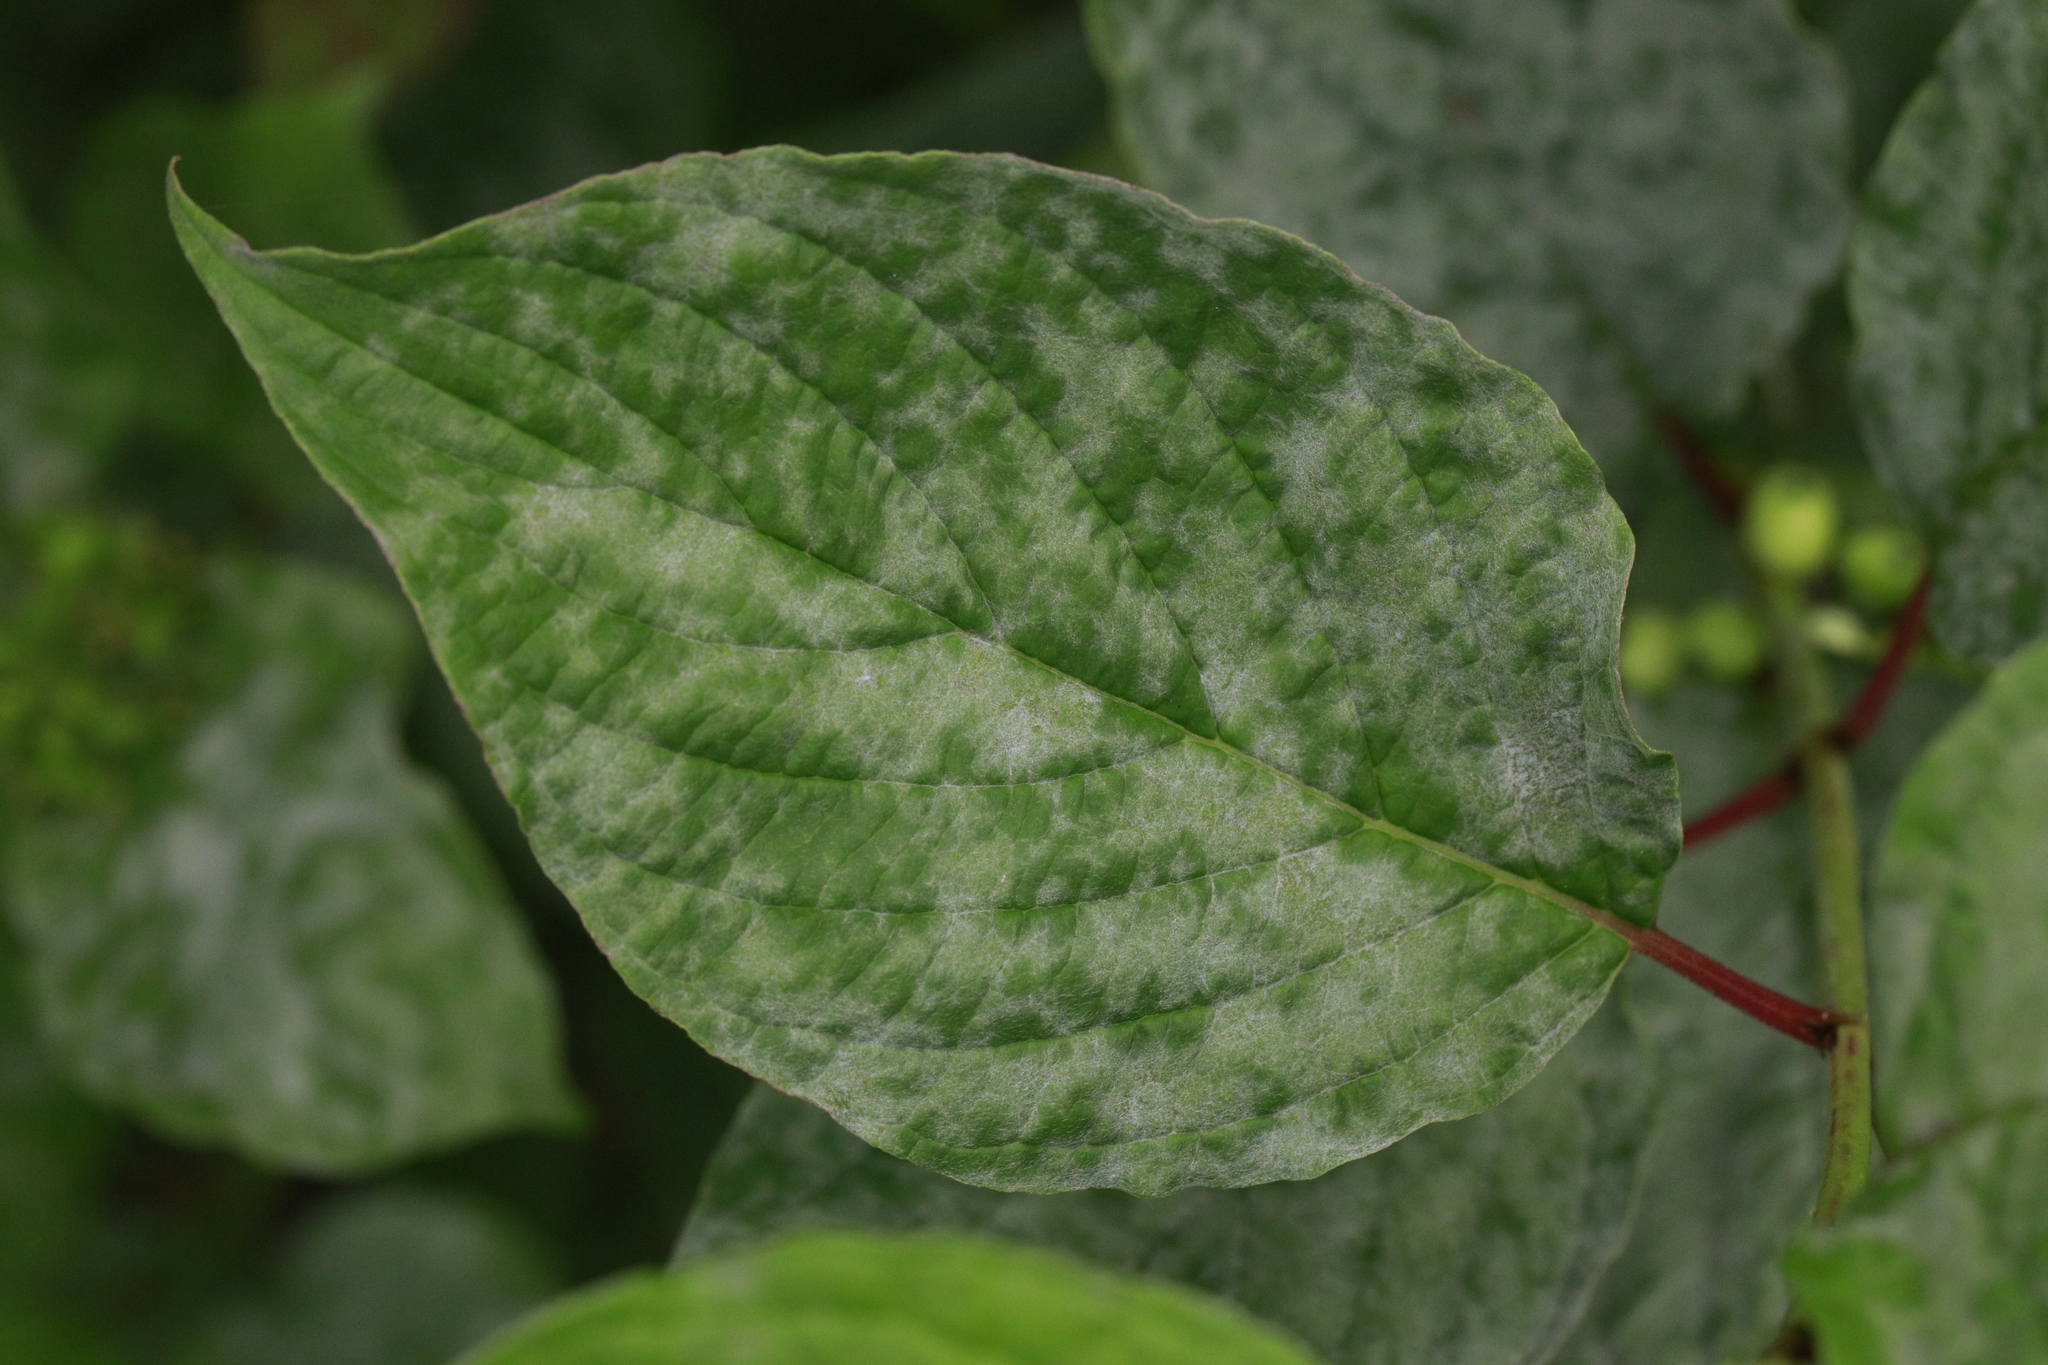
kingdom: Fungi
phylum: Ascomycota
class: Leotiomycetes
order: Helotiales
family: Erysiphaceae
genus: Erysiphe
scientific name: Erysiphe tortilis
